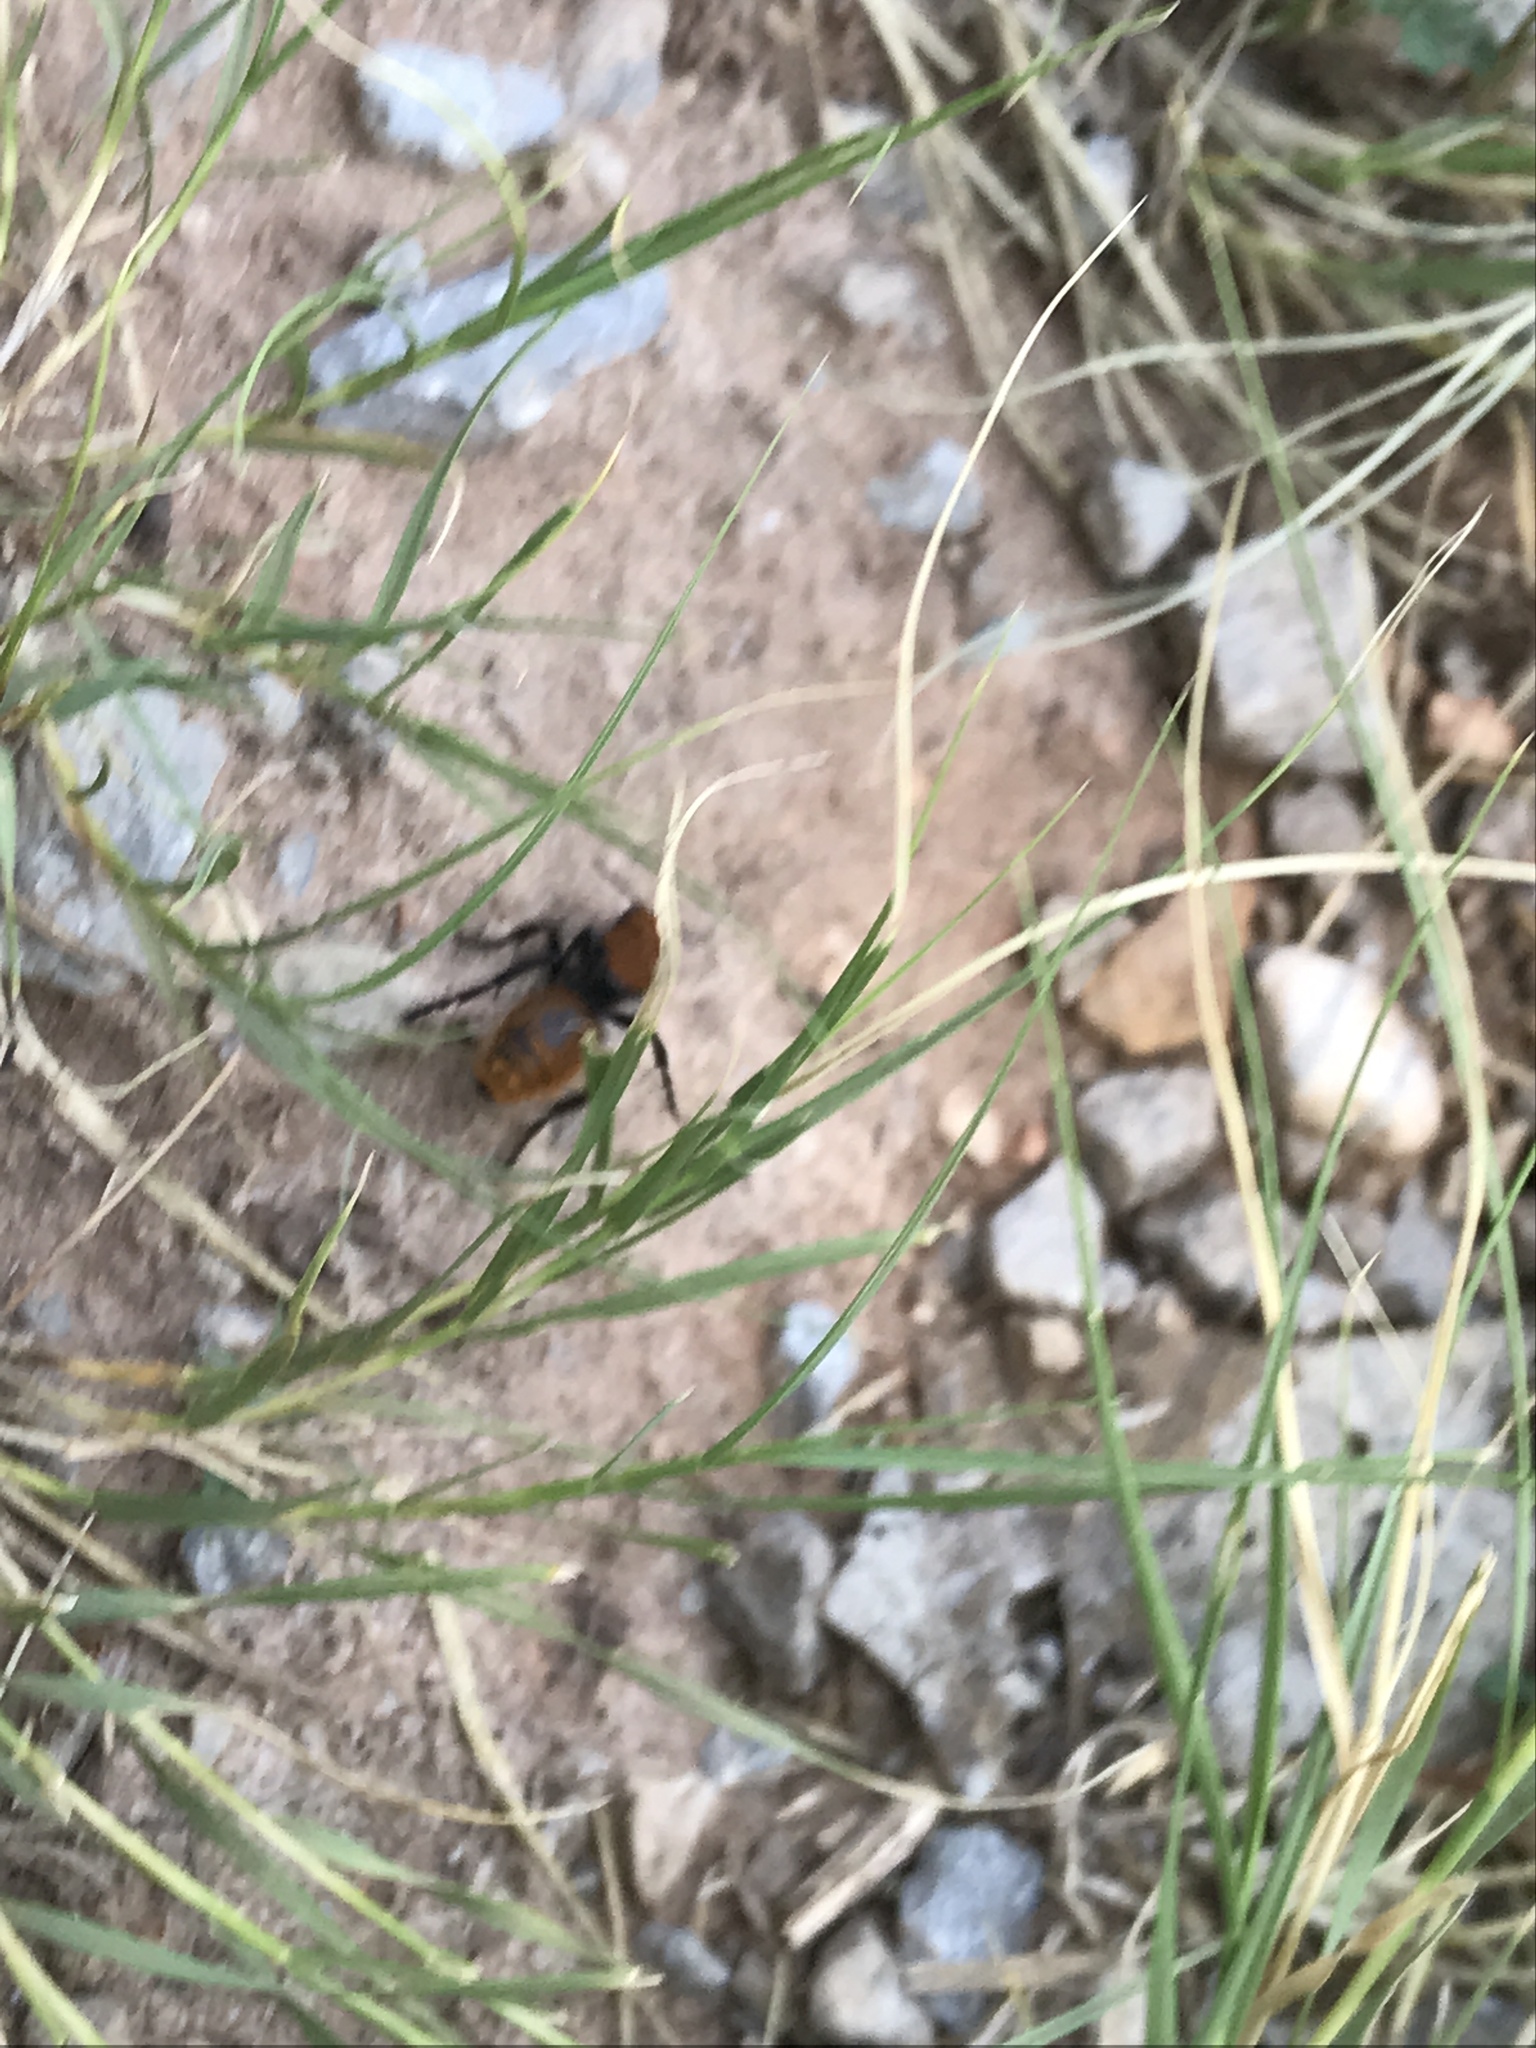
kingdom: Animalia
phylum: Arthropoda
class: Insecta
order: Hymenoptera
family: Mutillidae
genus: Dasymutilla
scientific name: Dasymutilla
